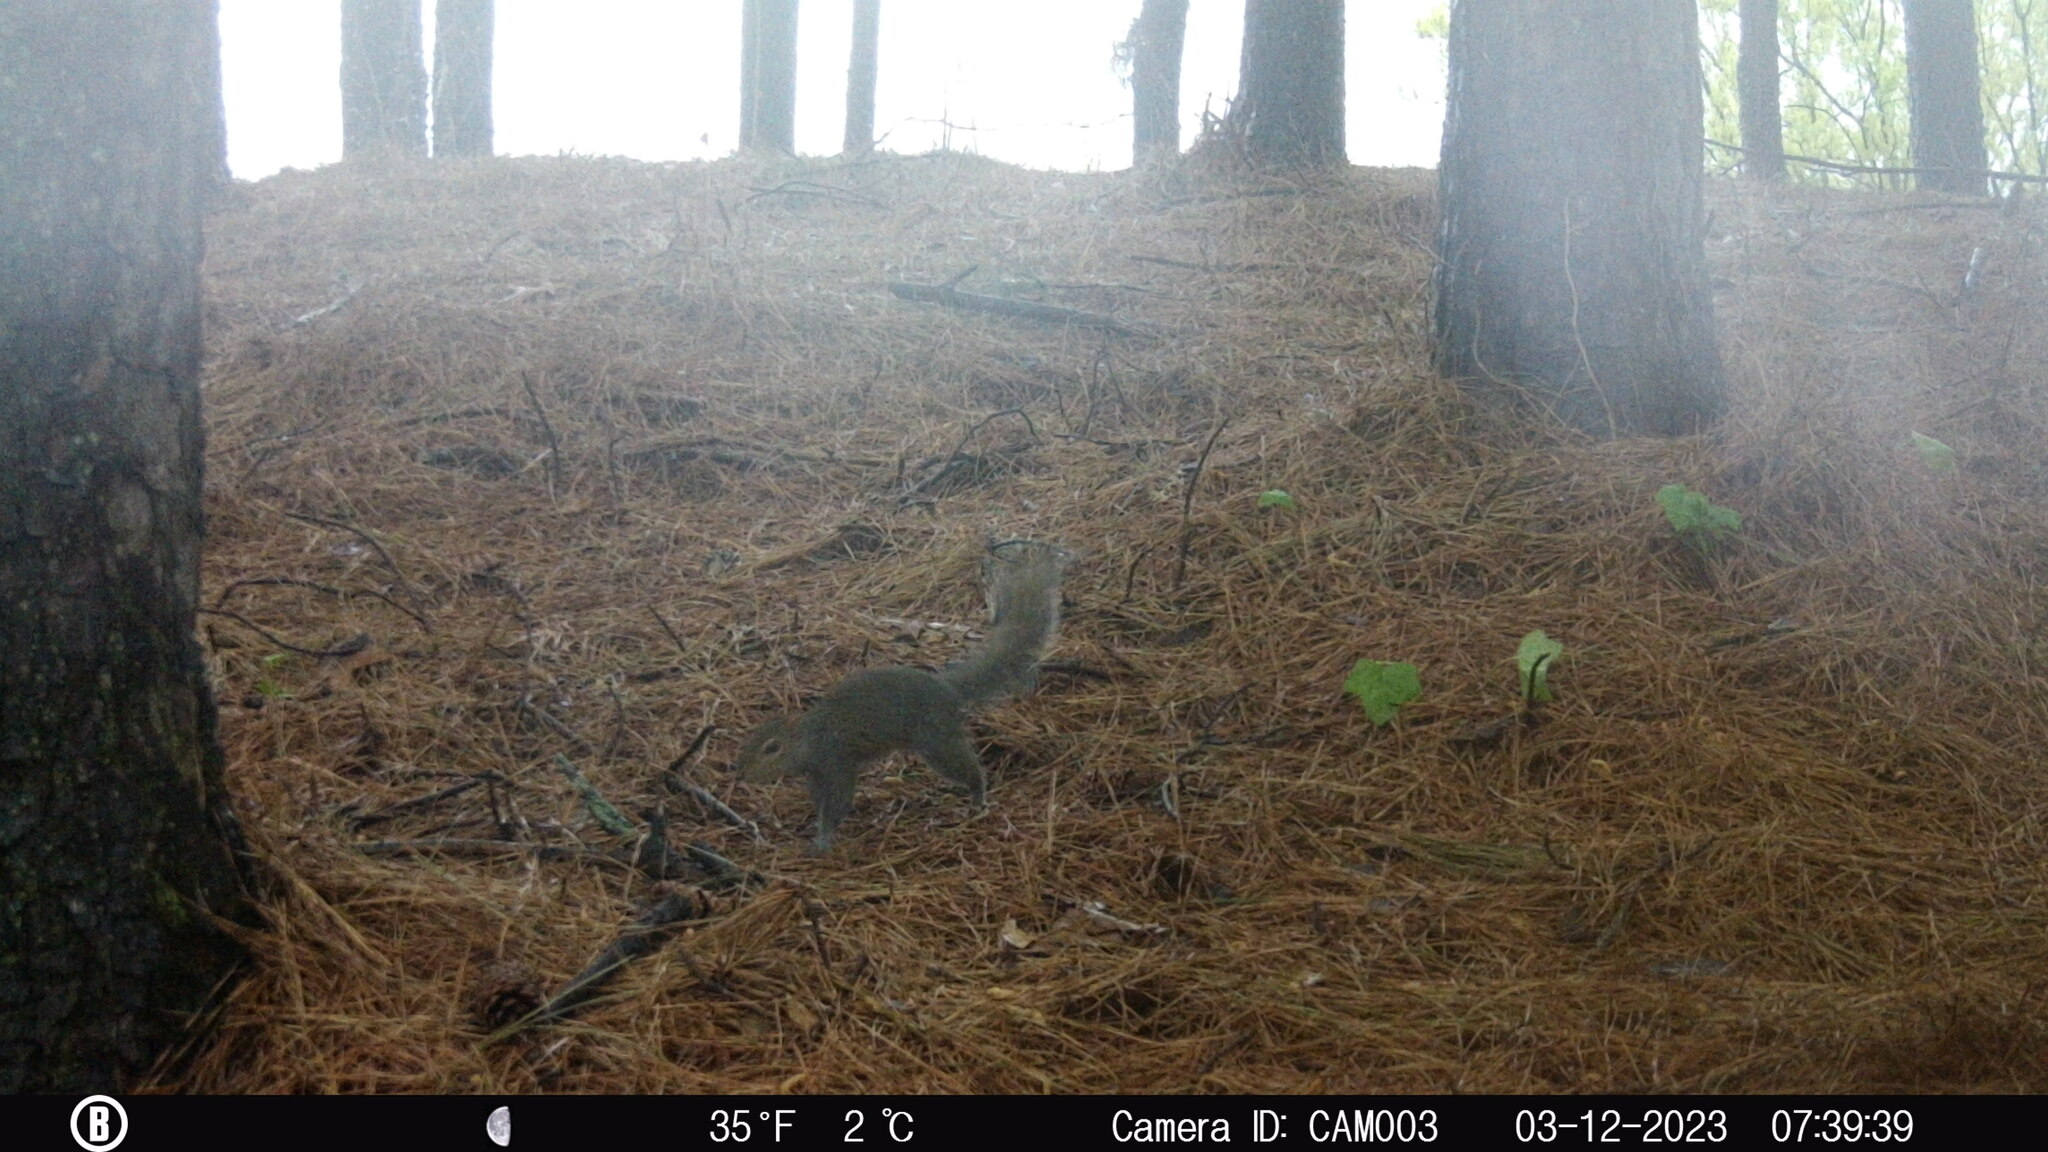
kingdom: Animalia
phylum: Chordata
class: Mammalia
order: Rodentia
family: Sciuridae
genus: Sciurus
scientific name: Sciurus carolinensis
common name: Eastern gray squirrel
